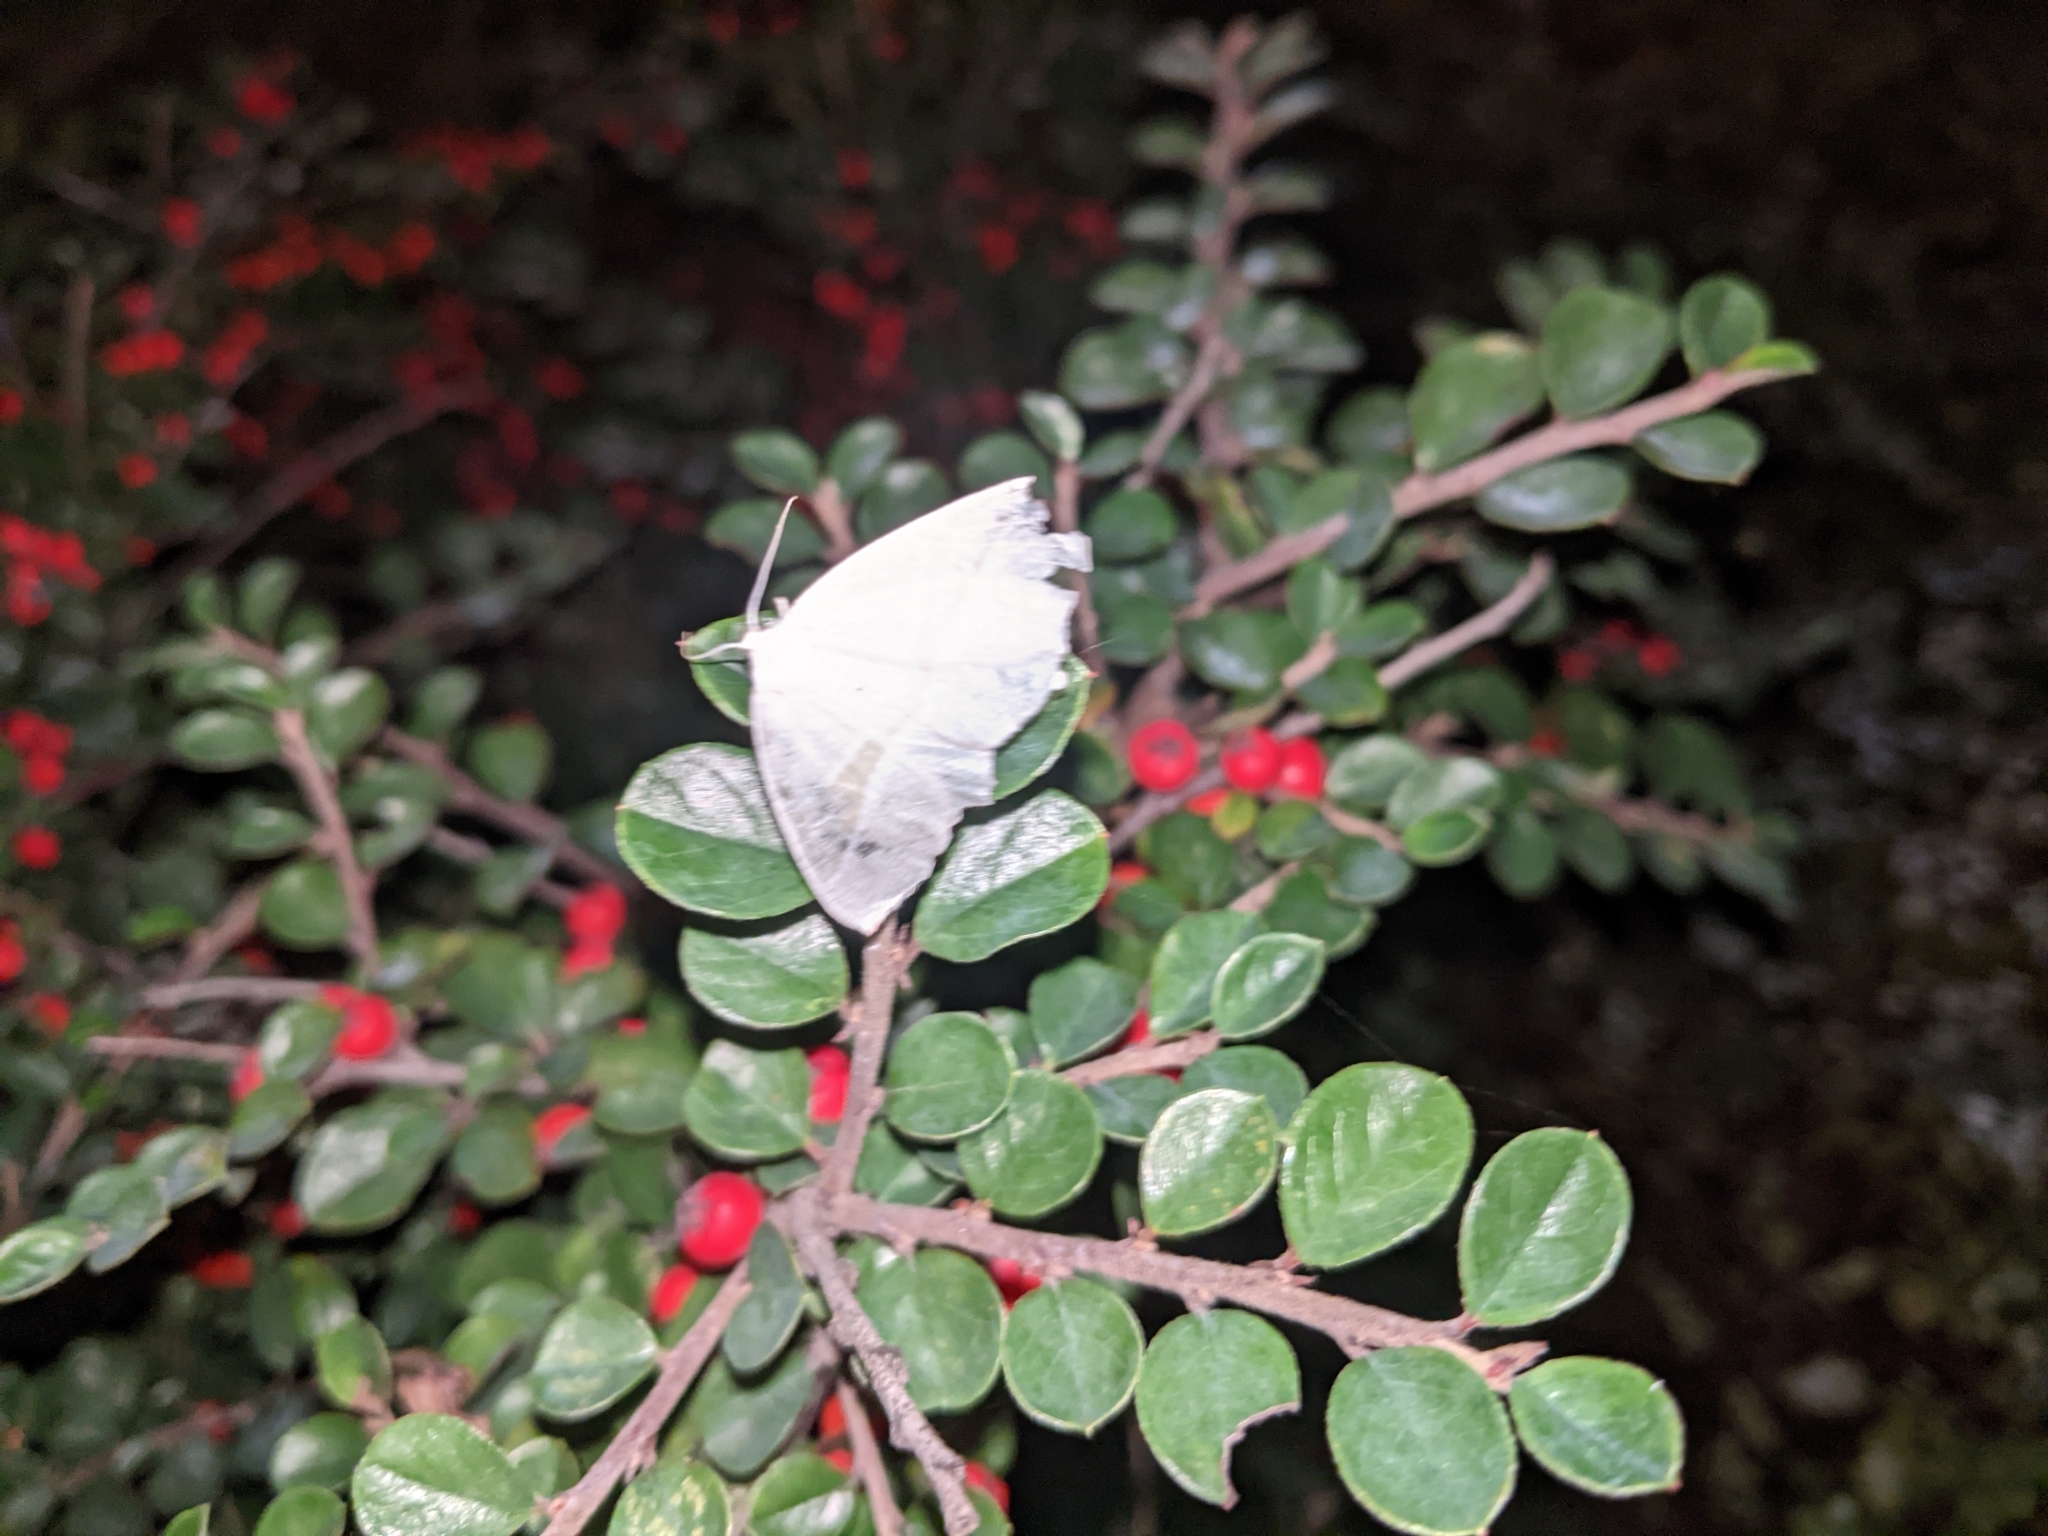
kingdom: Animalia
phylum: Arthropoda
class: Insecta
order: Lepidoptera
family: Geometridae
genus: Campaea
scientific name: Campaea margaritaria
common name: Light emerald
